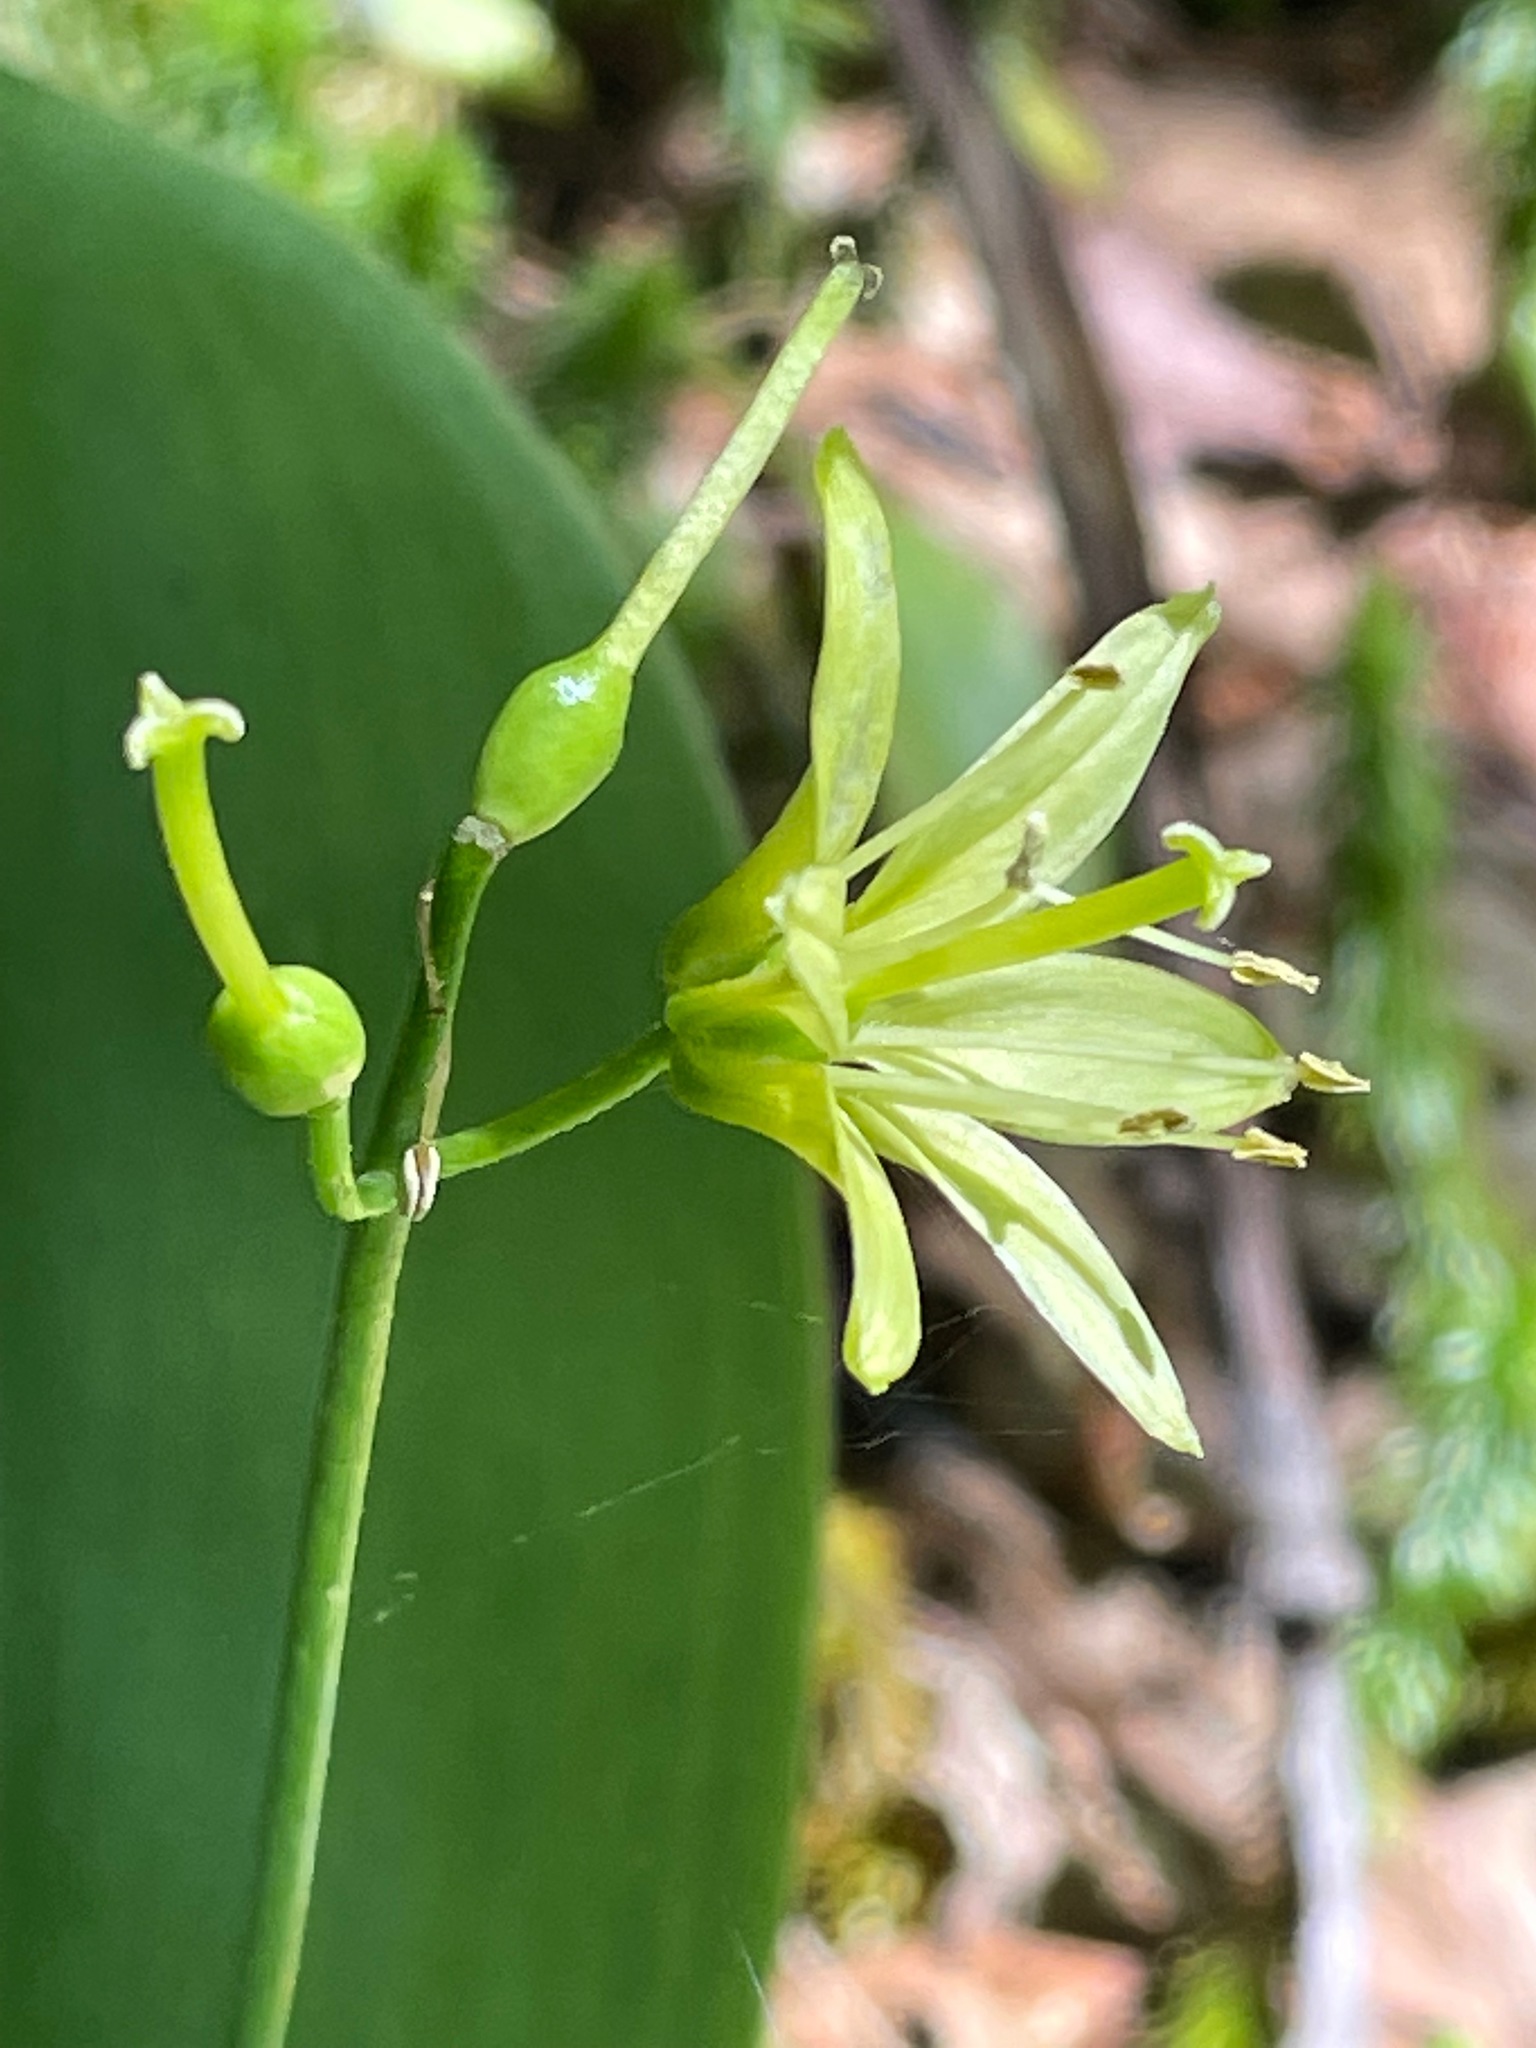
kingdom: Plantae
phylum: Tracheophyta
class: Liliopsida
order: Liliales
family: Liliaceae
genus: Clintonia
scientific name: Clintonia borealis
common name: Yellow clintonia
